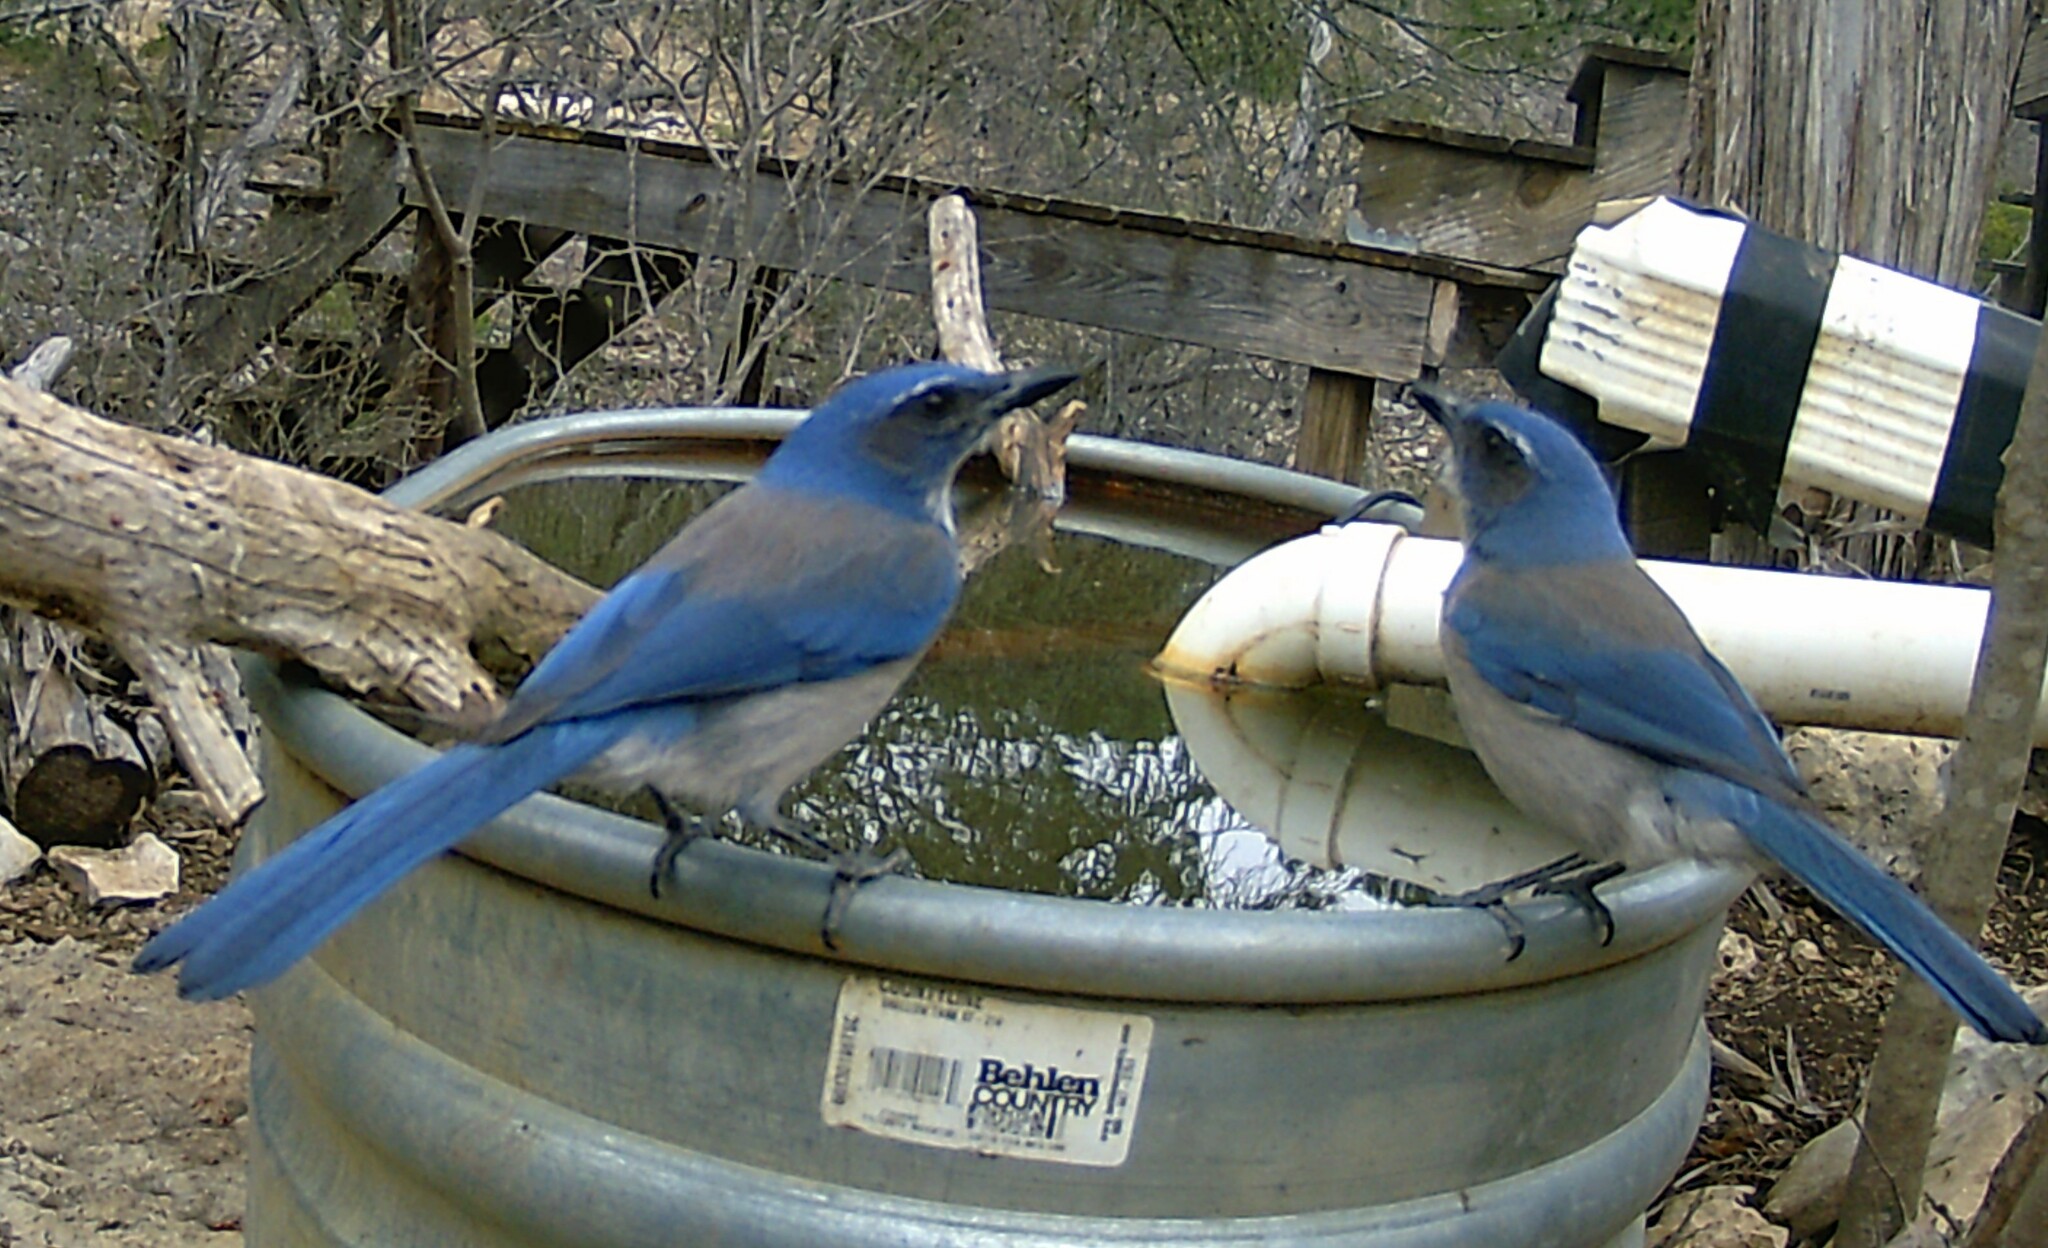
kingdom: Animalia
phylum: Chordata
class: Aves
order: Passeriformes
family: Corvidae
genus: Aphelocoma
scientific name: Aphelocoma woodhouseii
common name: Woodhouse's scrub-jay
